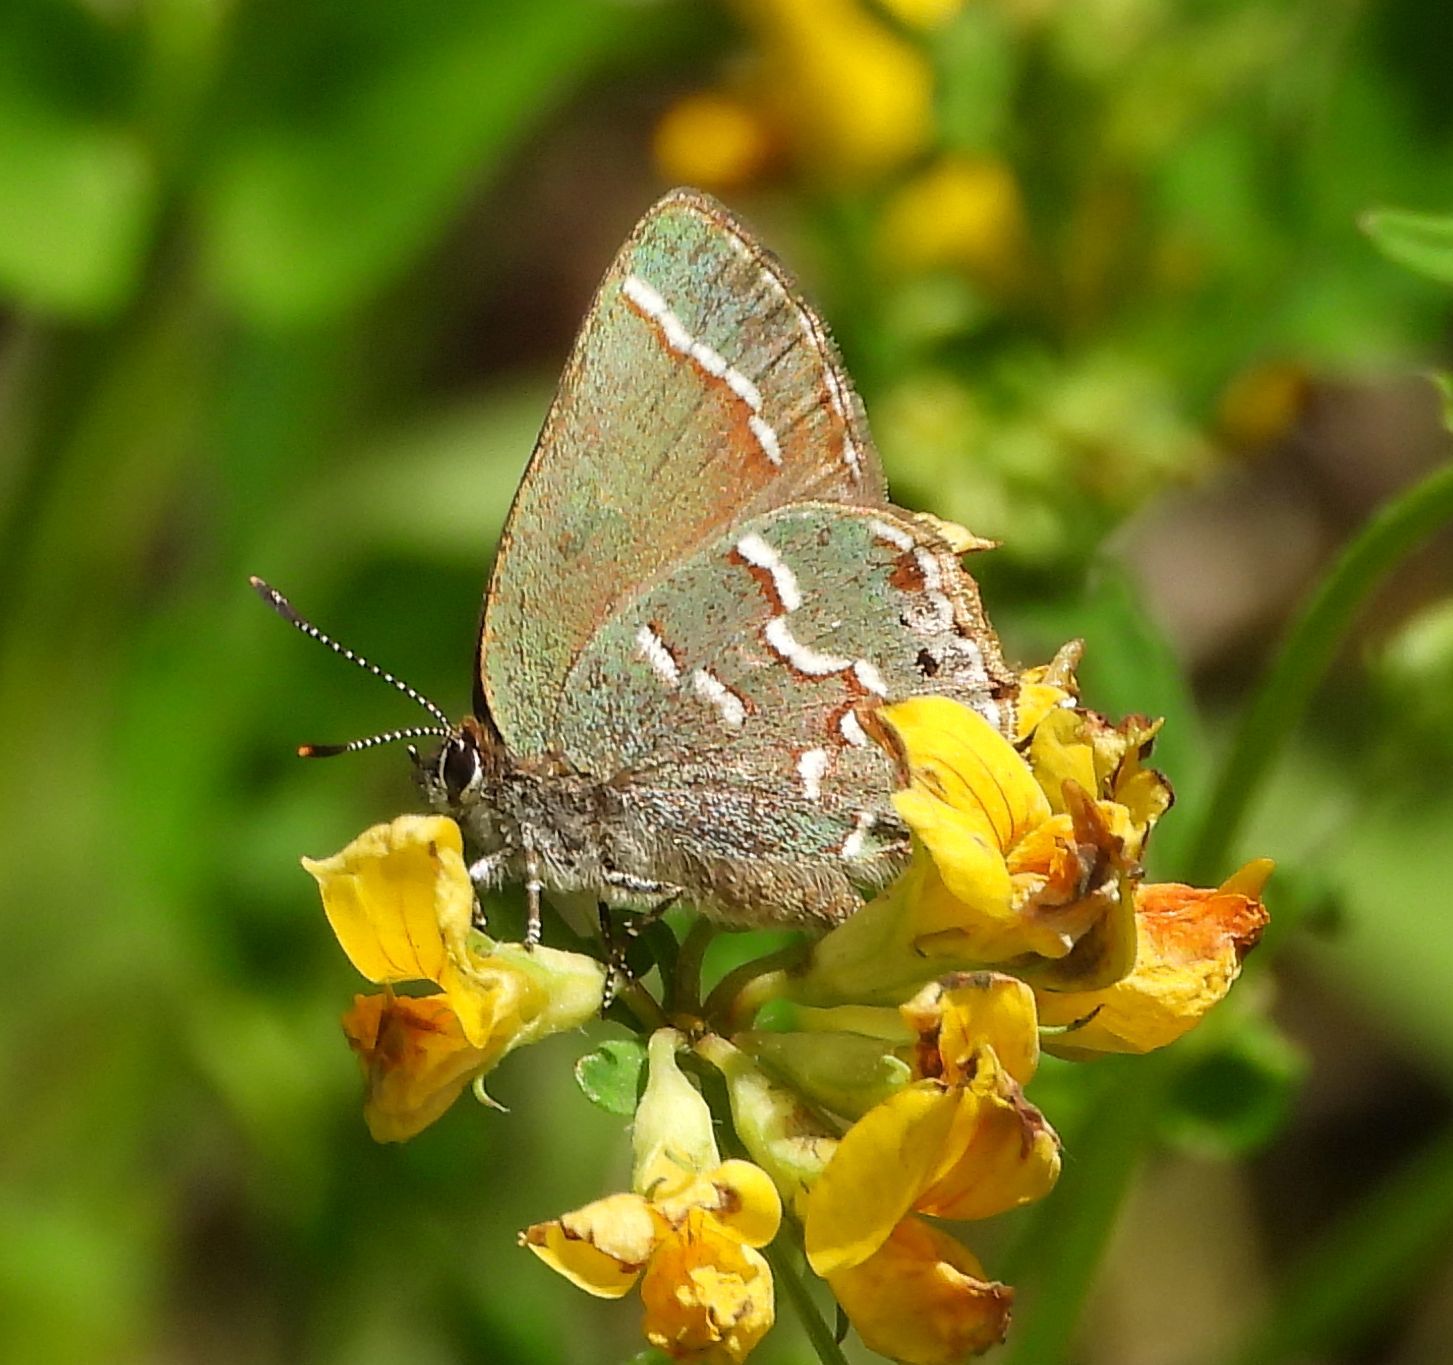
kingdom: Animalia
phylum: Arthropoda
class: Insecta
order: Lepidoptera
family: Lycaenidae
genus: Mitoura
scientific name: Mitoura gryneus
